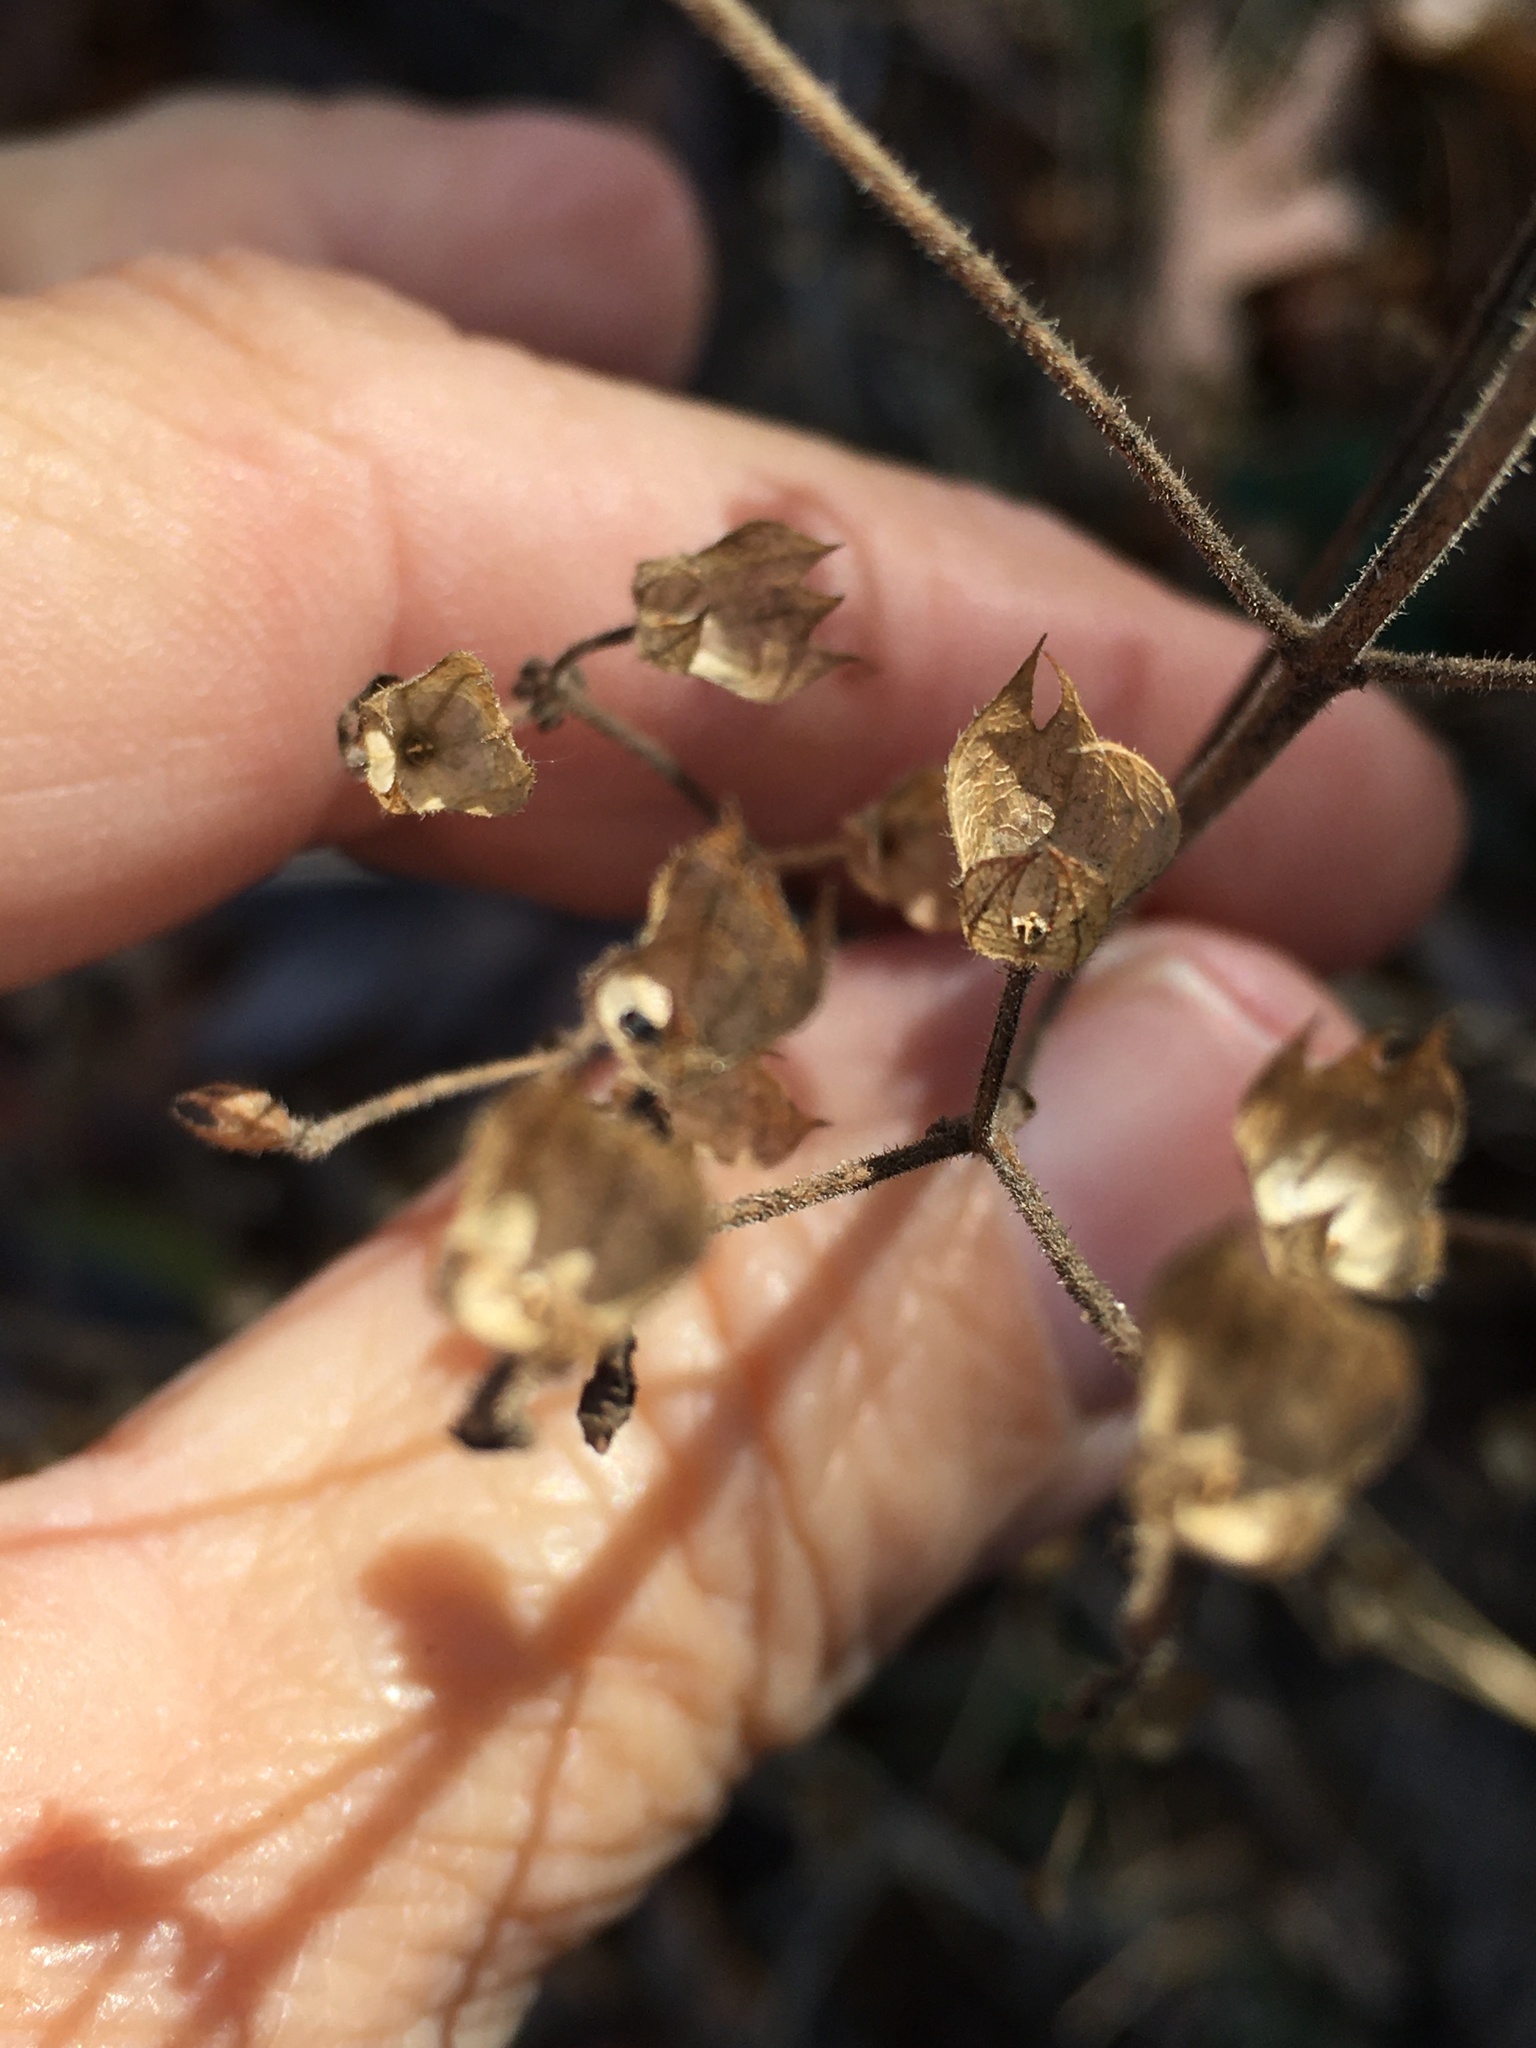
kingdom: Plantae
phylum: Tracheophyta
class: Magnoliopsida
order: Lamiales
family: Lamiaceae
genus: Trichostema
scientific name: Trichostema dichotomum
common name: Bastard pennyroyal
